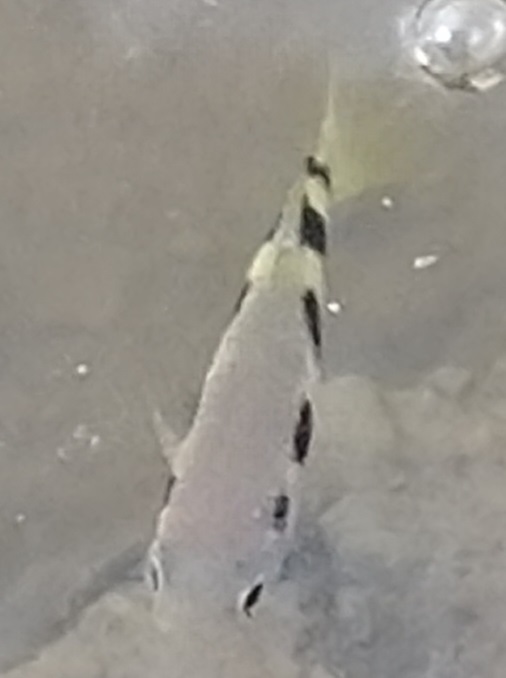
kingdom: Animalia
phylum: Chordata
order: Perciformes
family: Toxotidae
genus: Toxotes
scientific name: Toxotes jaculatrix
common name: Banded archerfish
